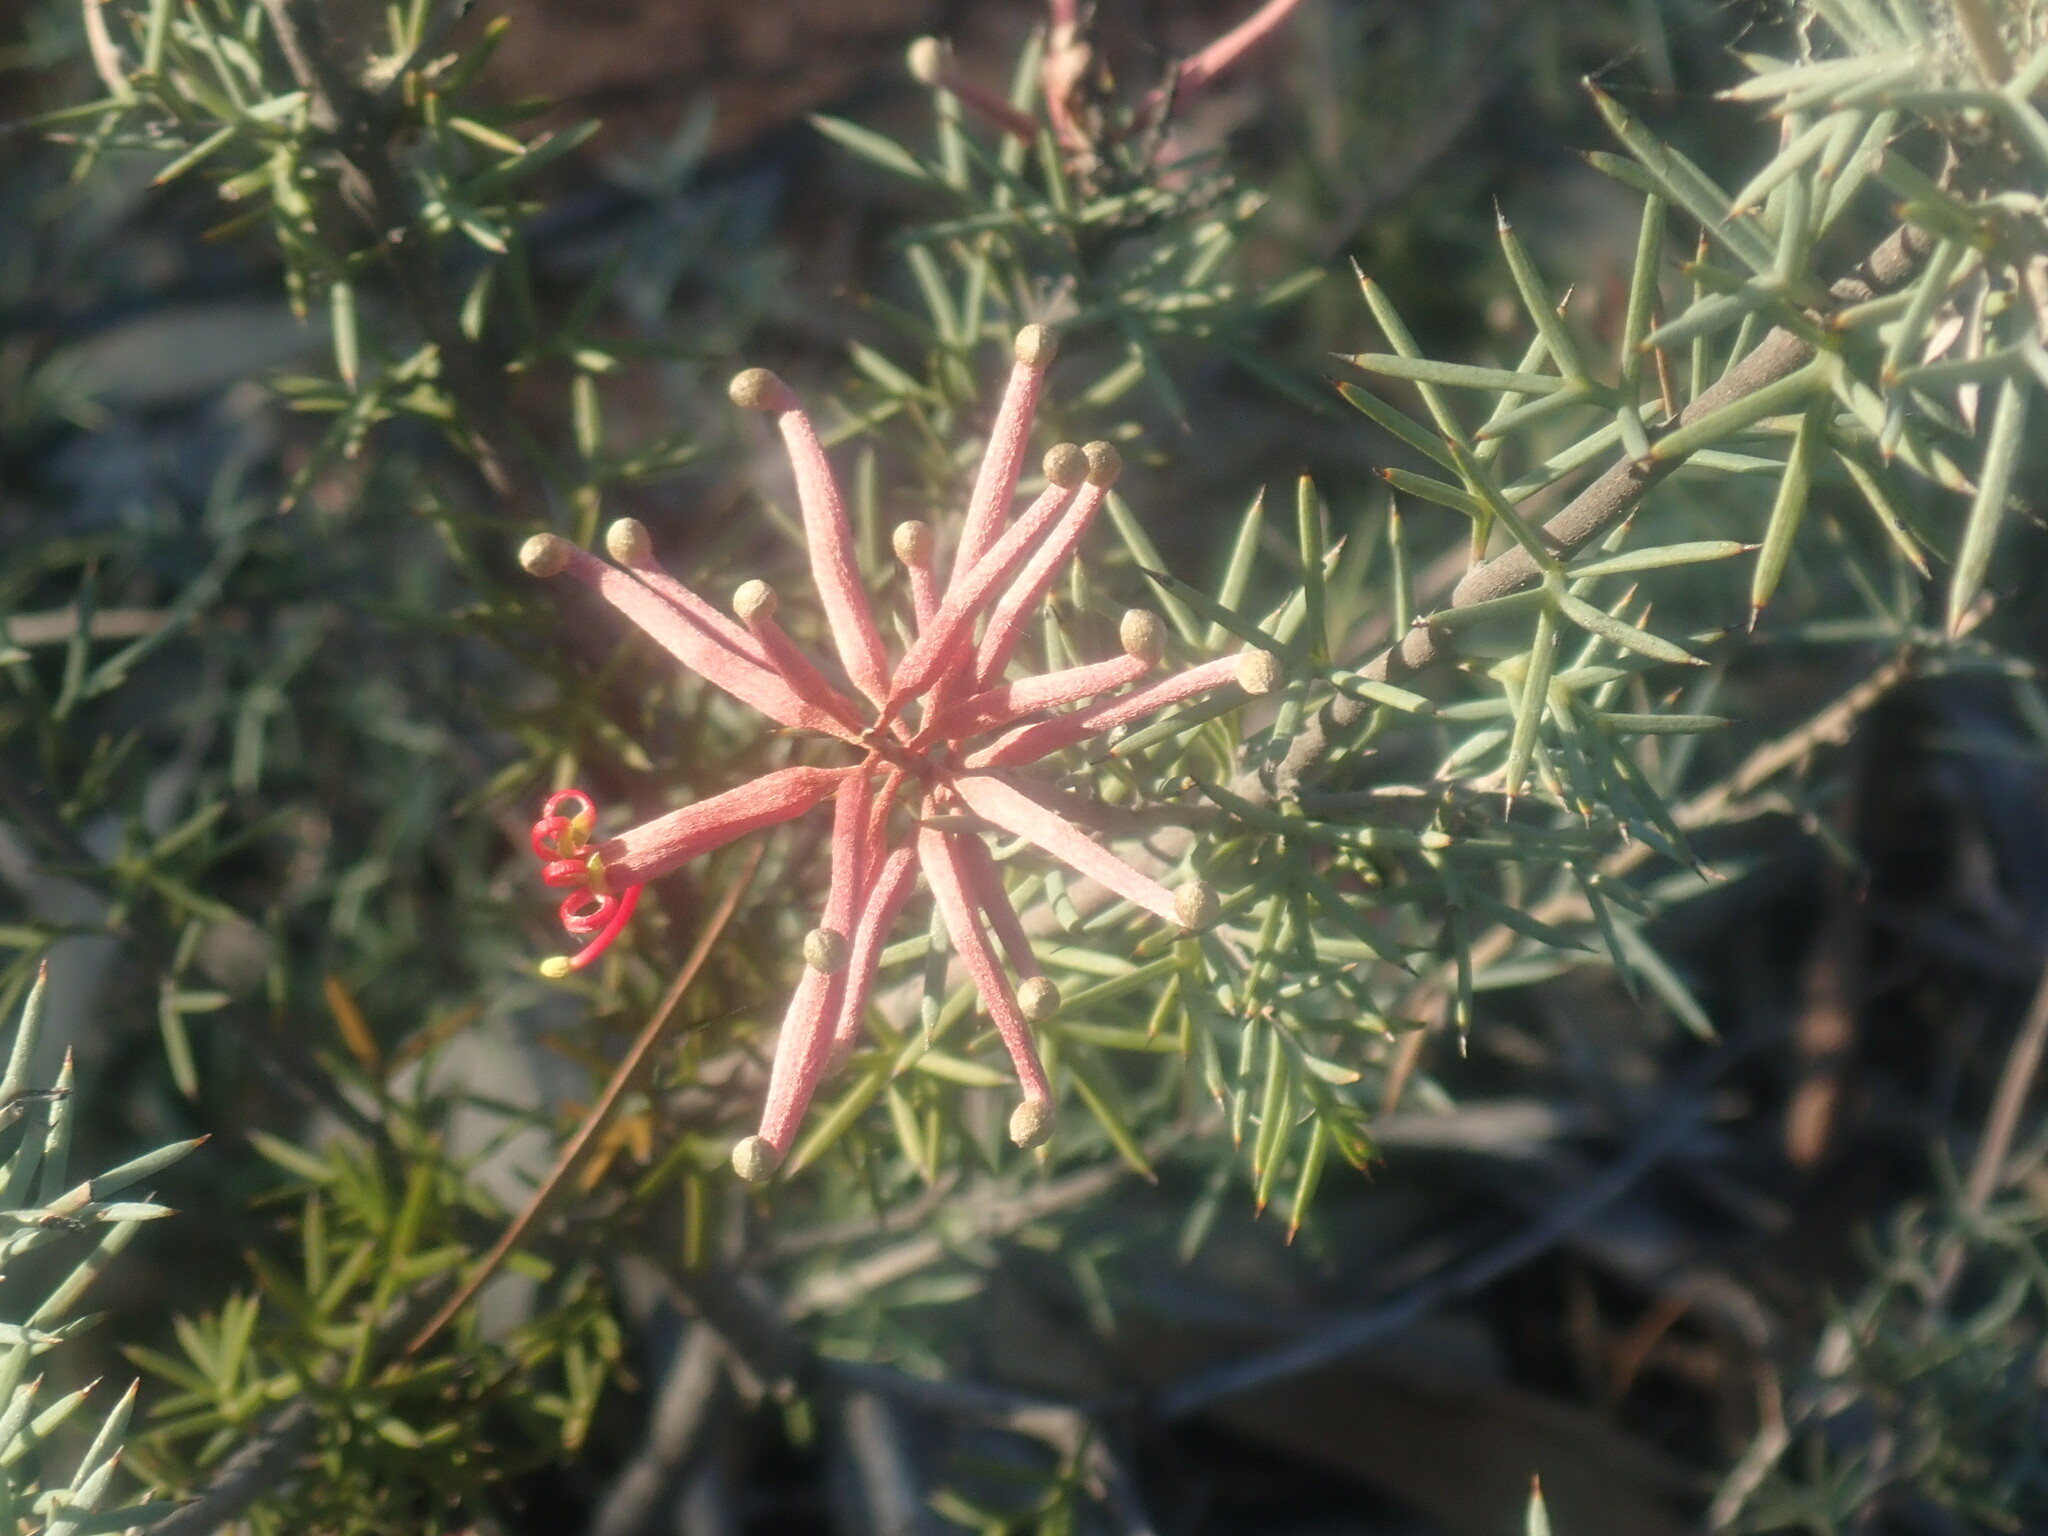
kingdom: Plantae
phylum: Tracheophyta
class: Magnoliopsida
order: Proteales
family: Proteaceae
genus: Grevillea
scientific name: Grevillea huegelii
